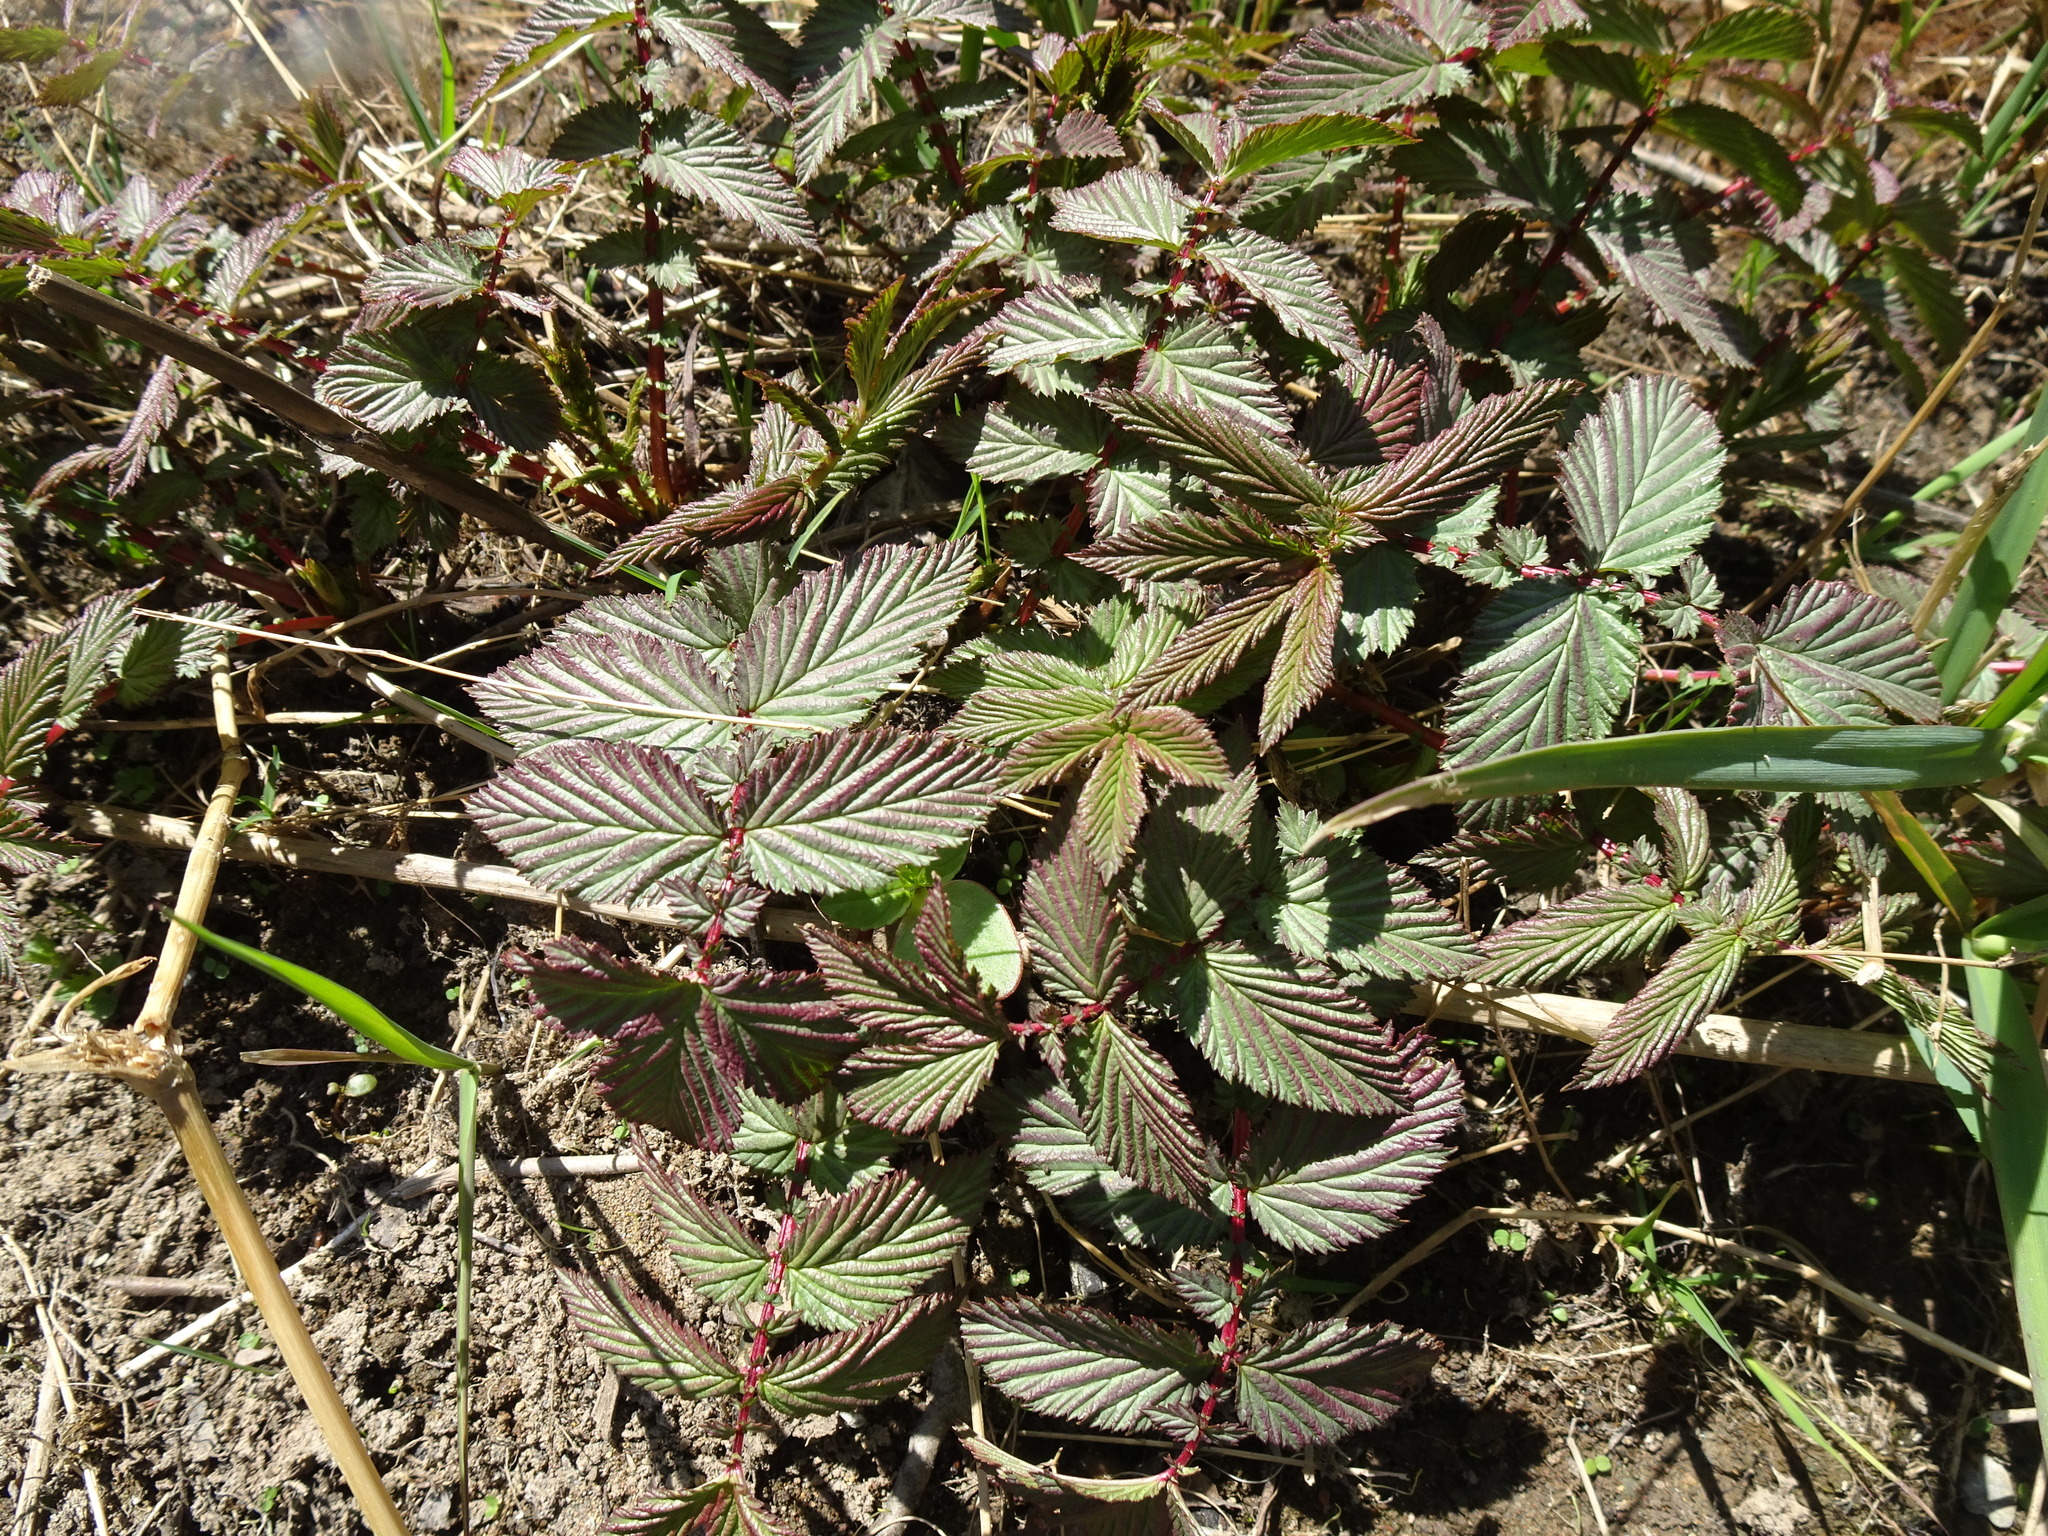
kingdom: Plantae
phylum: Tracheophyta
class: Magnoliopsida
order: Rosales
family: Rosaceae
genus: Filipendula
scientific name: Filipendula ulmaria
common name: Meadowsweet
